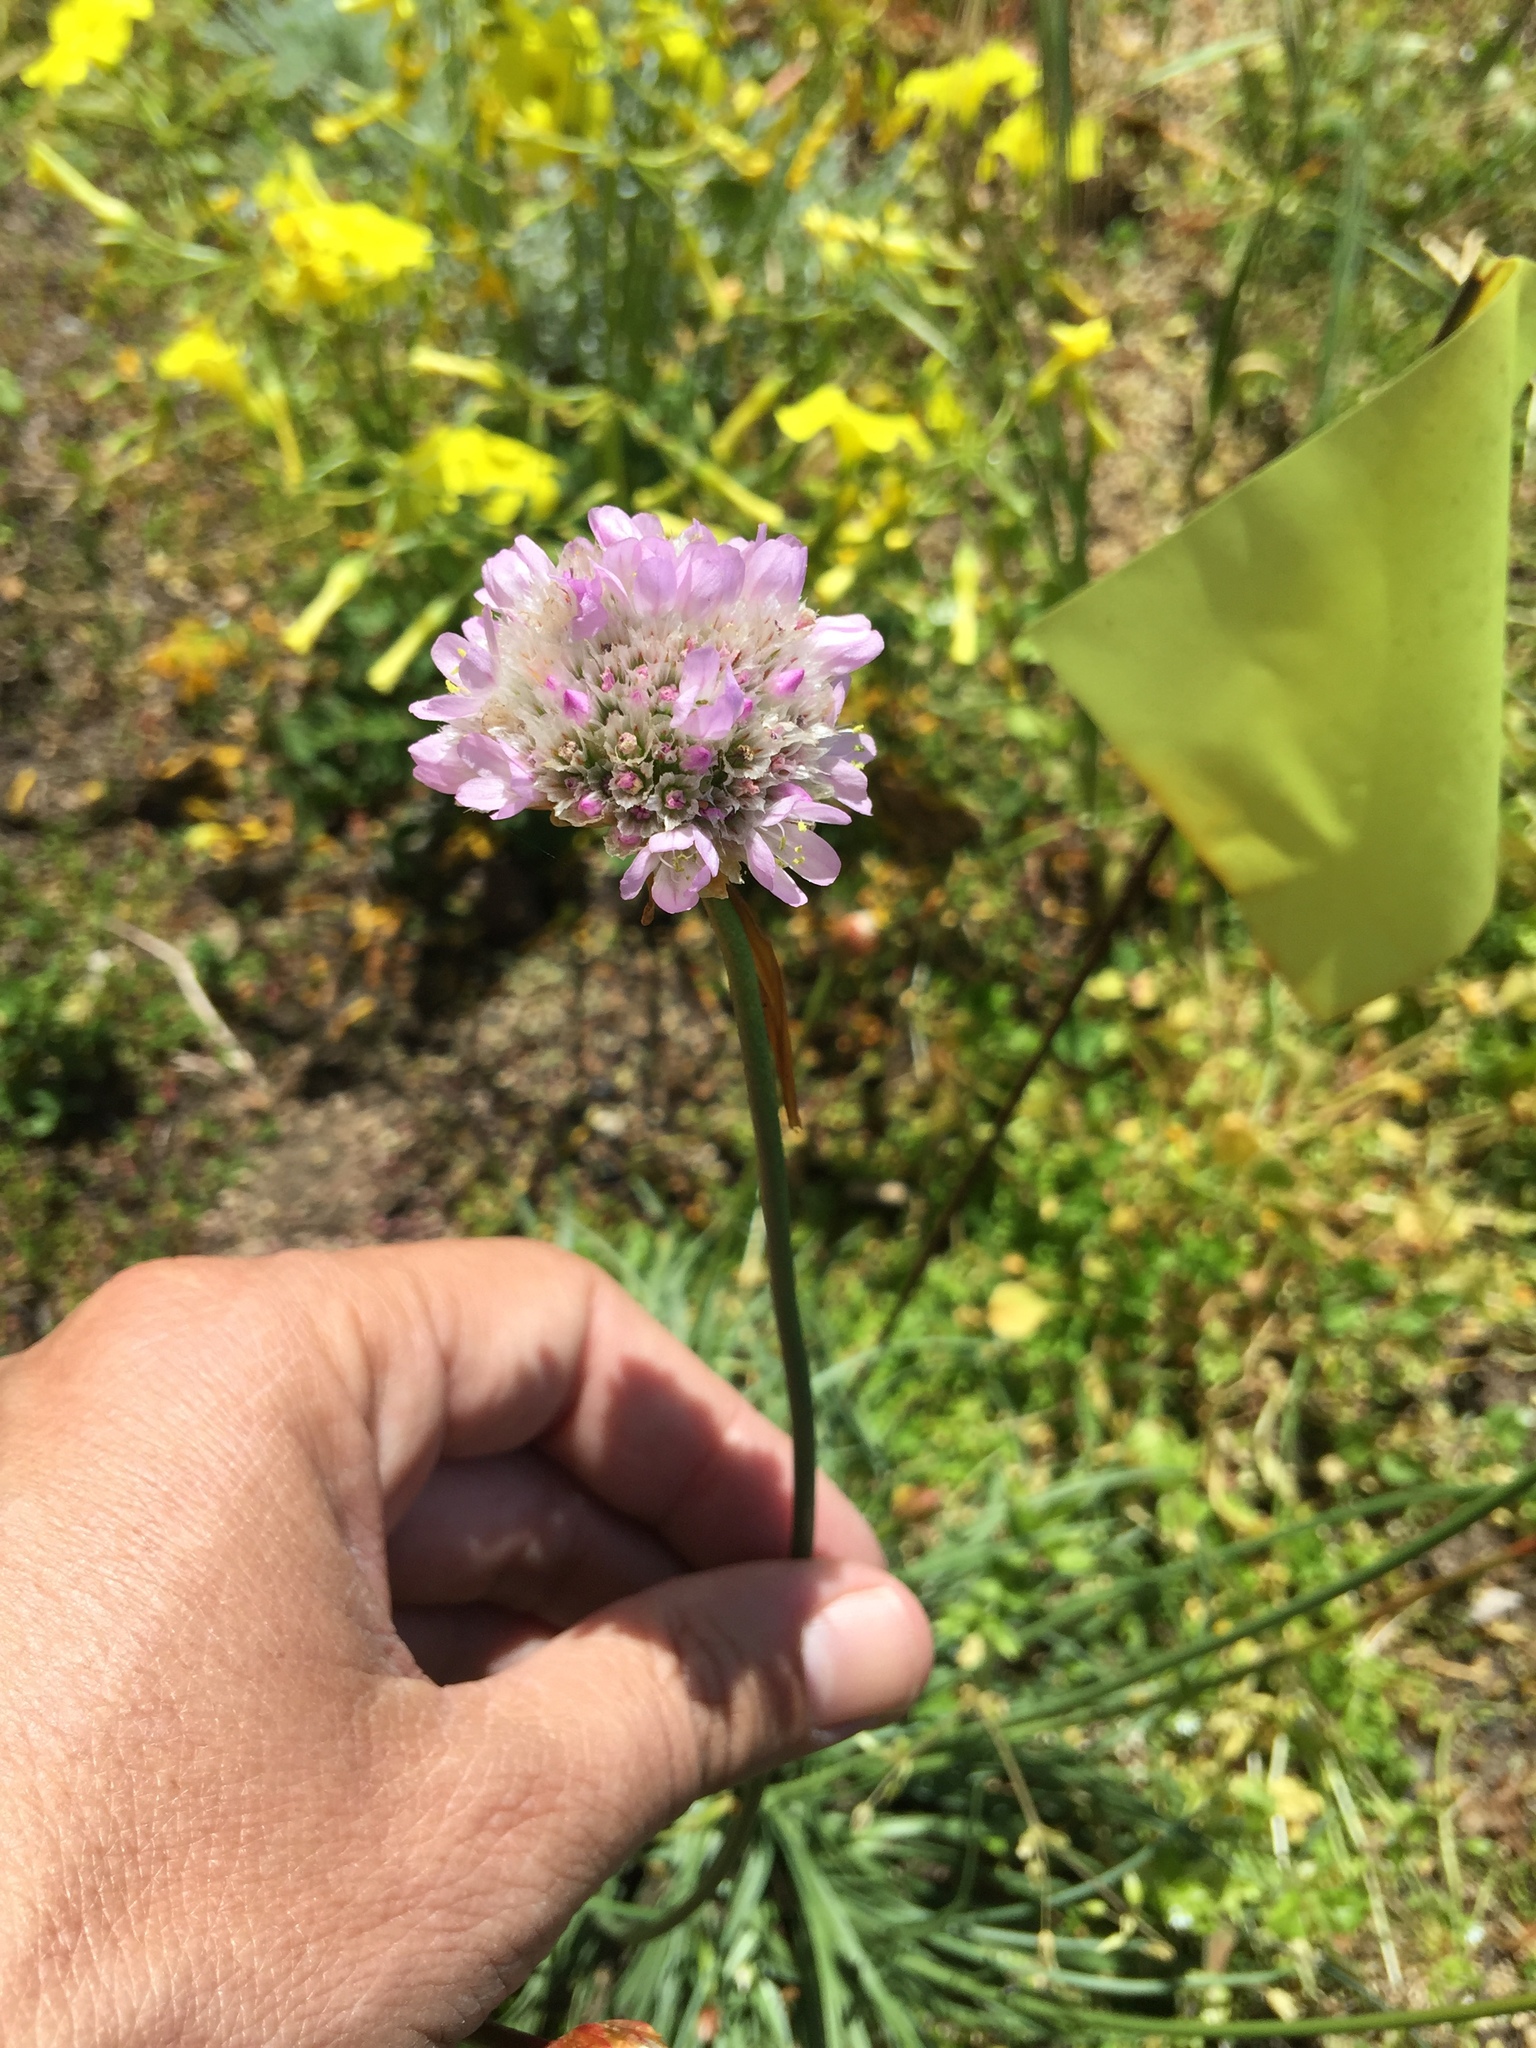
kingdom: Plantae
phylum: Tracheophyta
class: Magnoliopsida
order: Caryophyllales
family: Plumbaginaceae
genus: Armeria
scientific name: Armeria maritima
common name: Thrift
